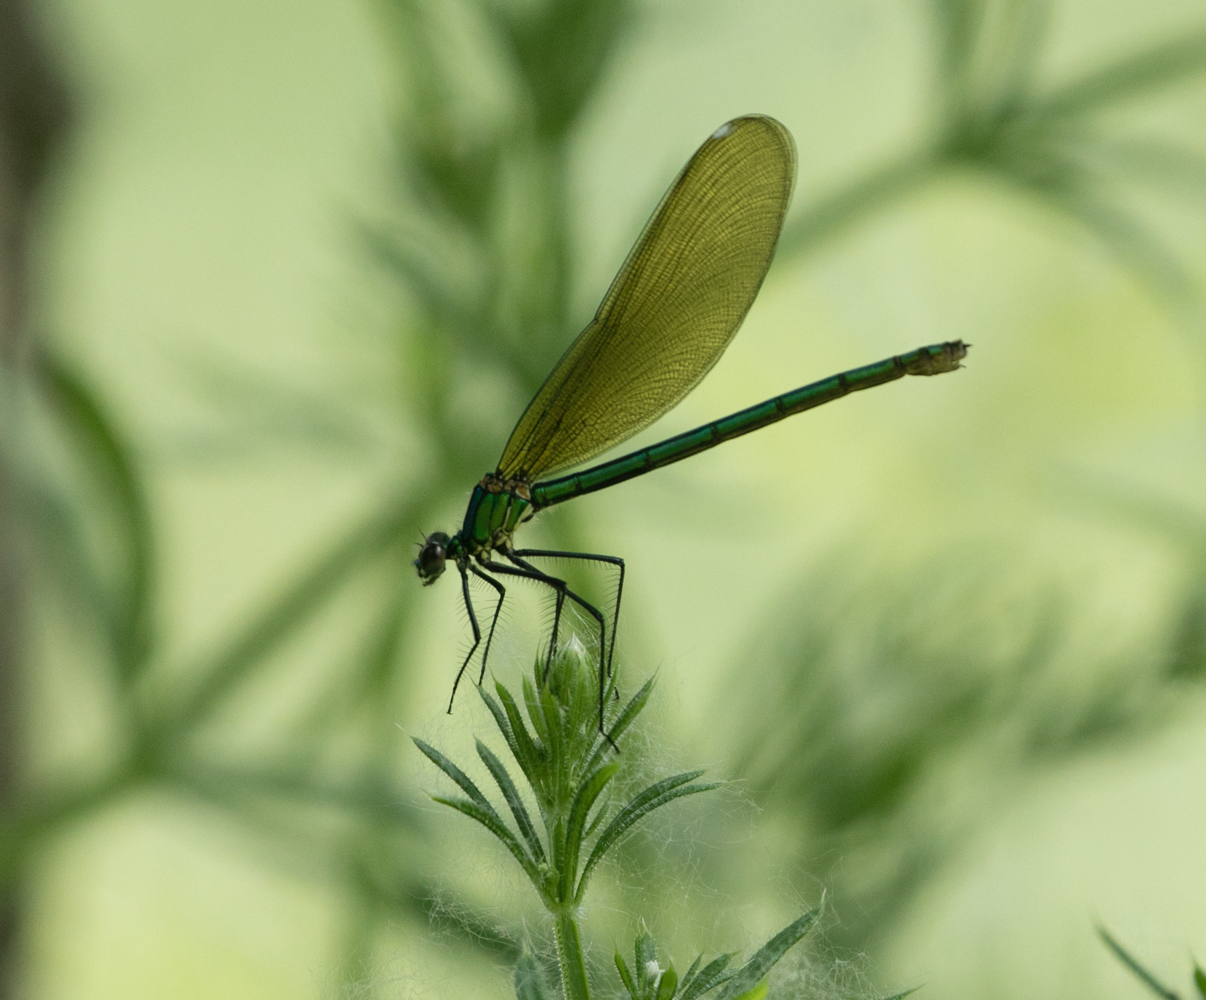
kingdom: Animalia
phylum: Arthropoda
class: Insecta
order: Odonata
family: Calopterygidae
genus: Calopteryx
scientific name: Calopteryx splendens
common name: Banded demoiselle
